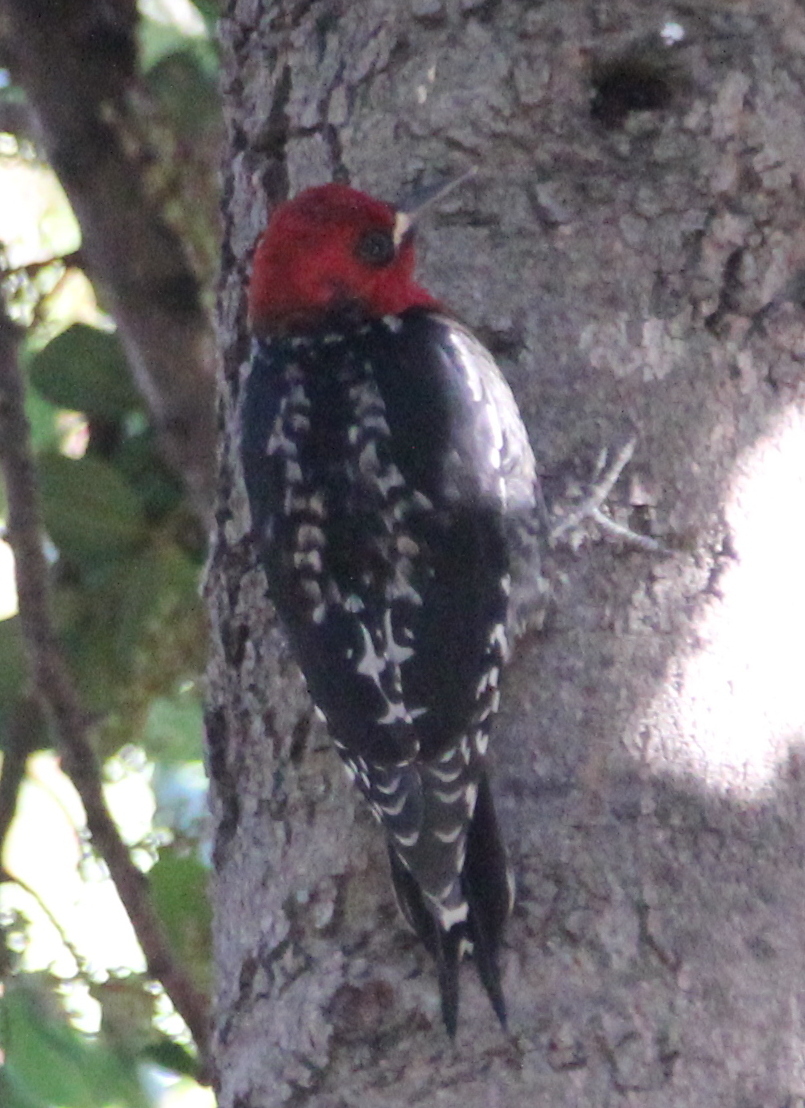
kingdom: Animalia
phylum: Chordata
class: Aves
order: Piciformes
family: Picidae
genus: Sphyrapicus
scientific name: Sphyrapicus ruber
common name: Red-breasted sapsucker
